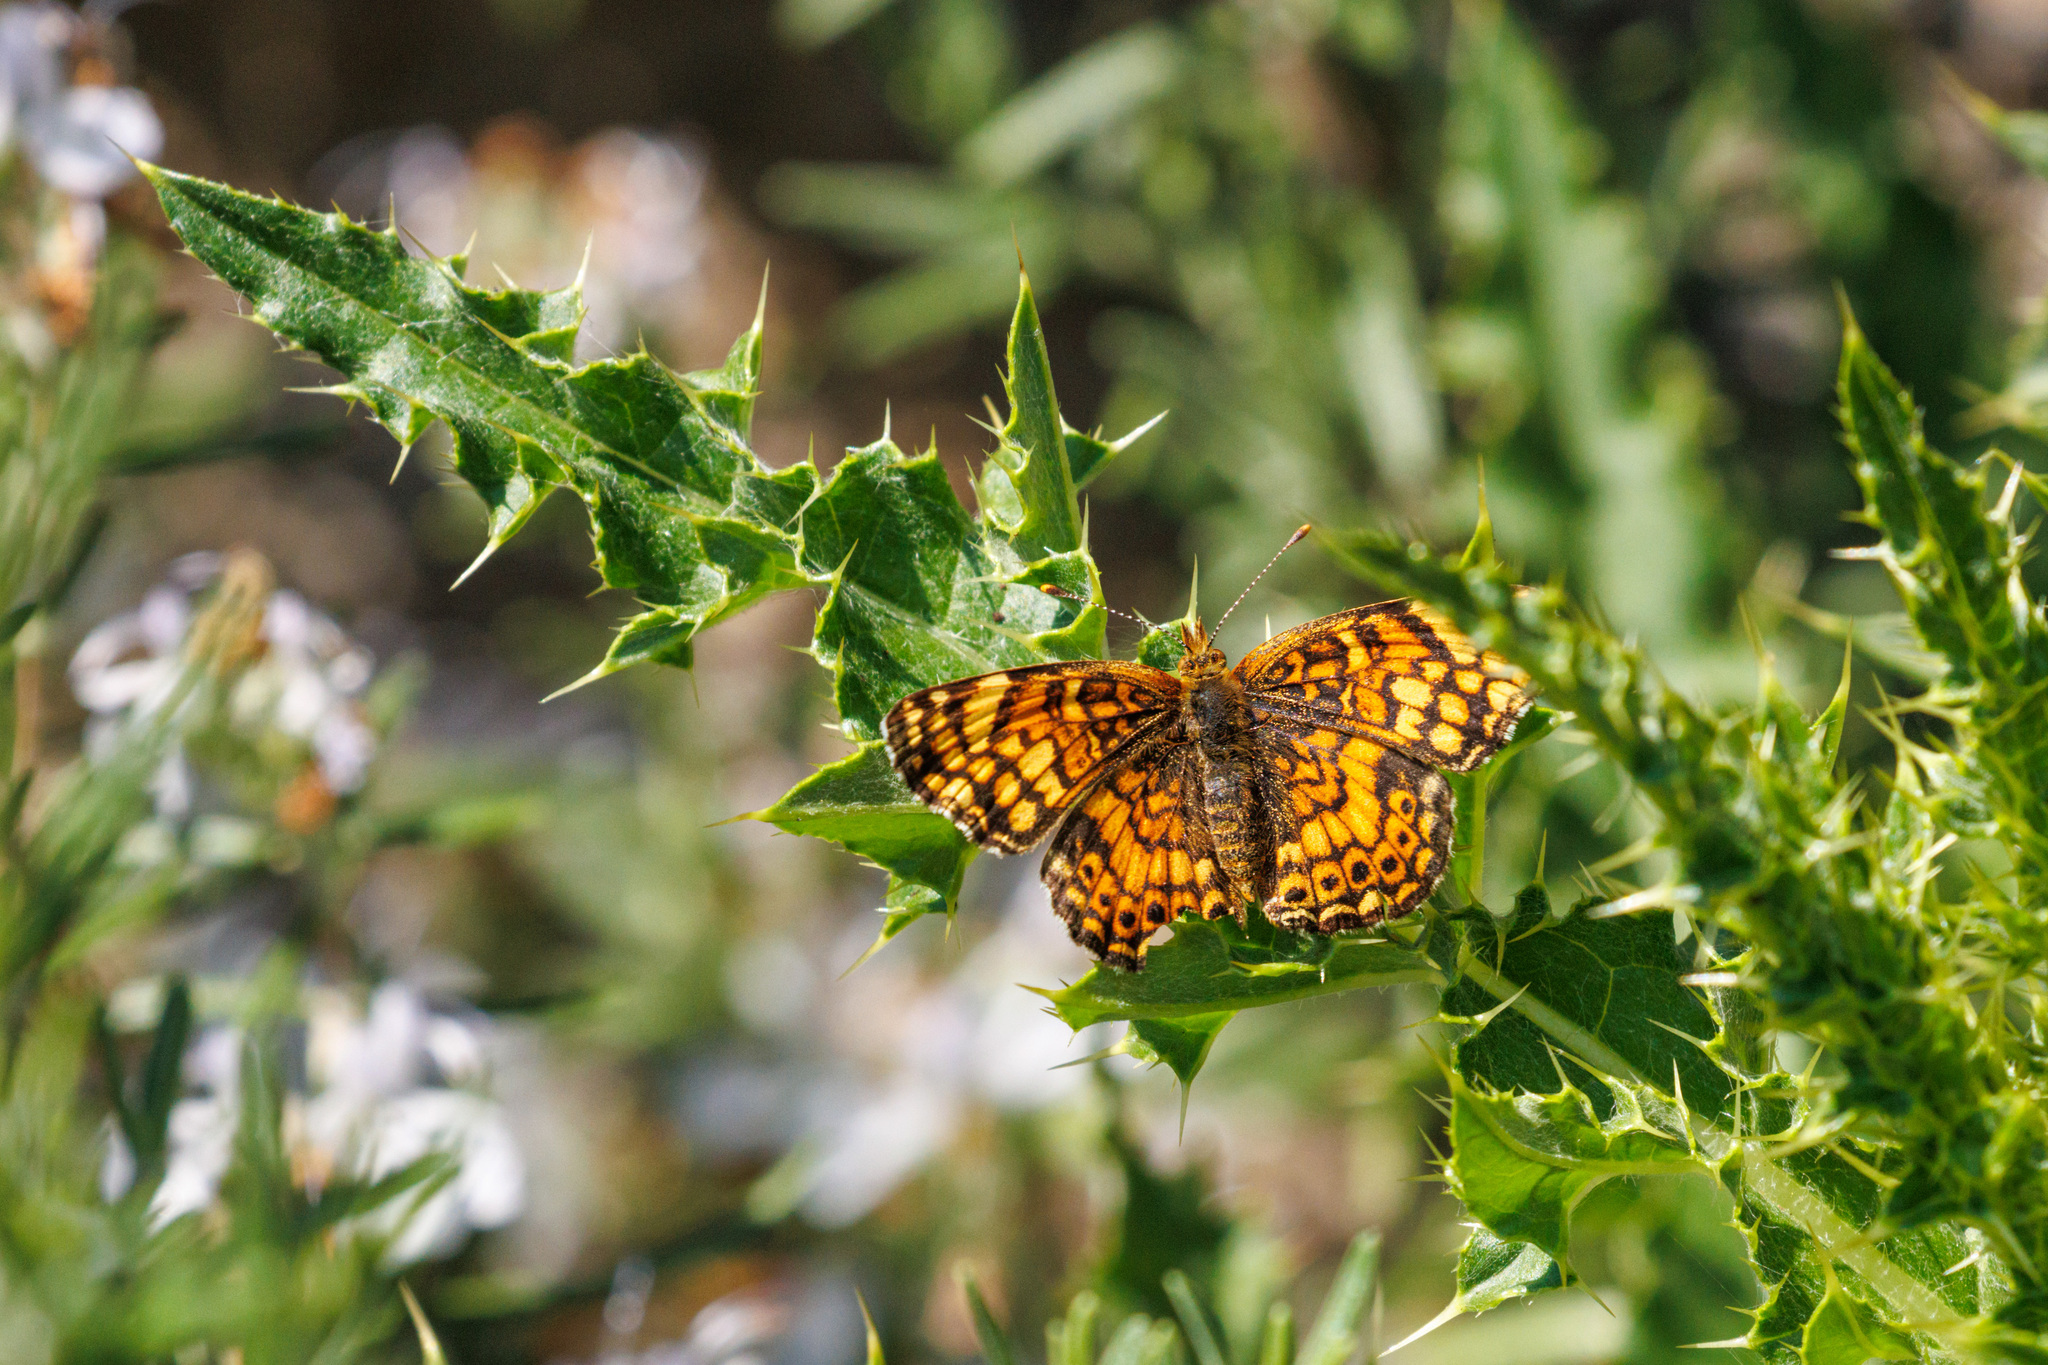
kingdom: Animalia
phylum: Arthropoda
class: Insecta
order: Lepidoptera
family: Nymphalidae
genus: Eresia
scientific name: Eresia aveyrona
